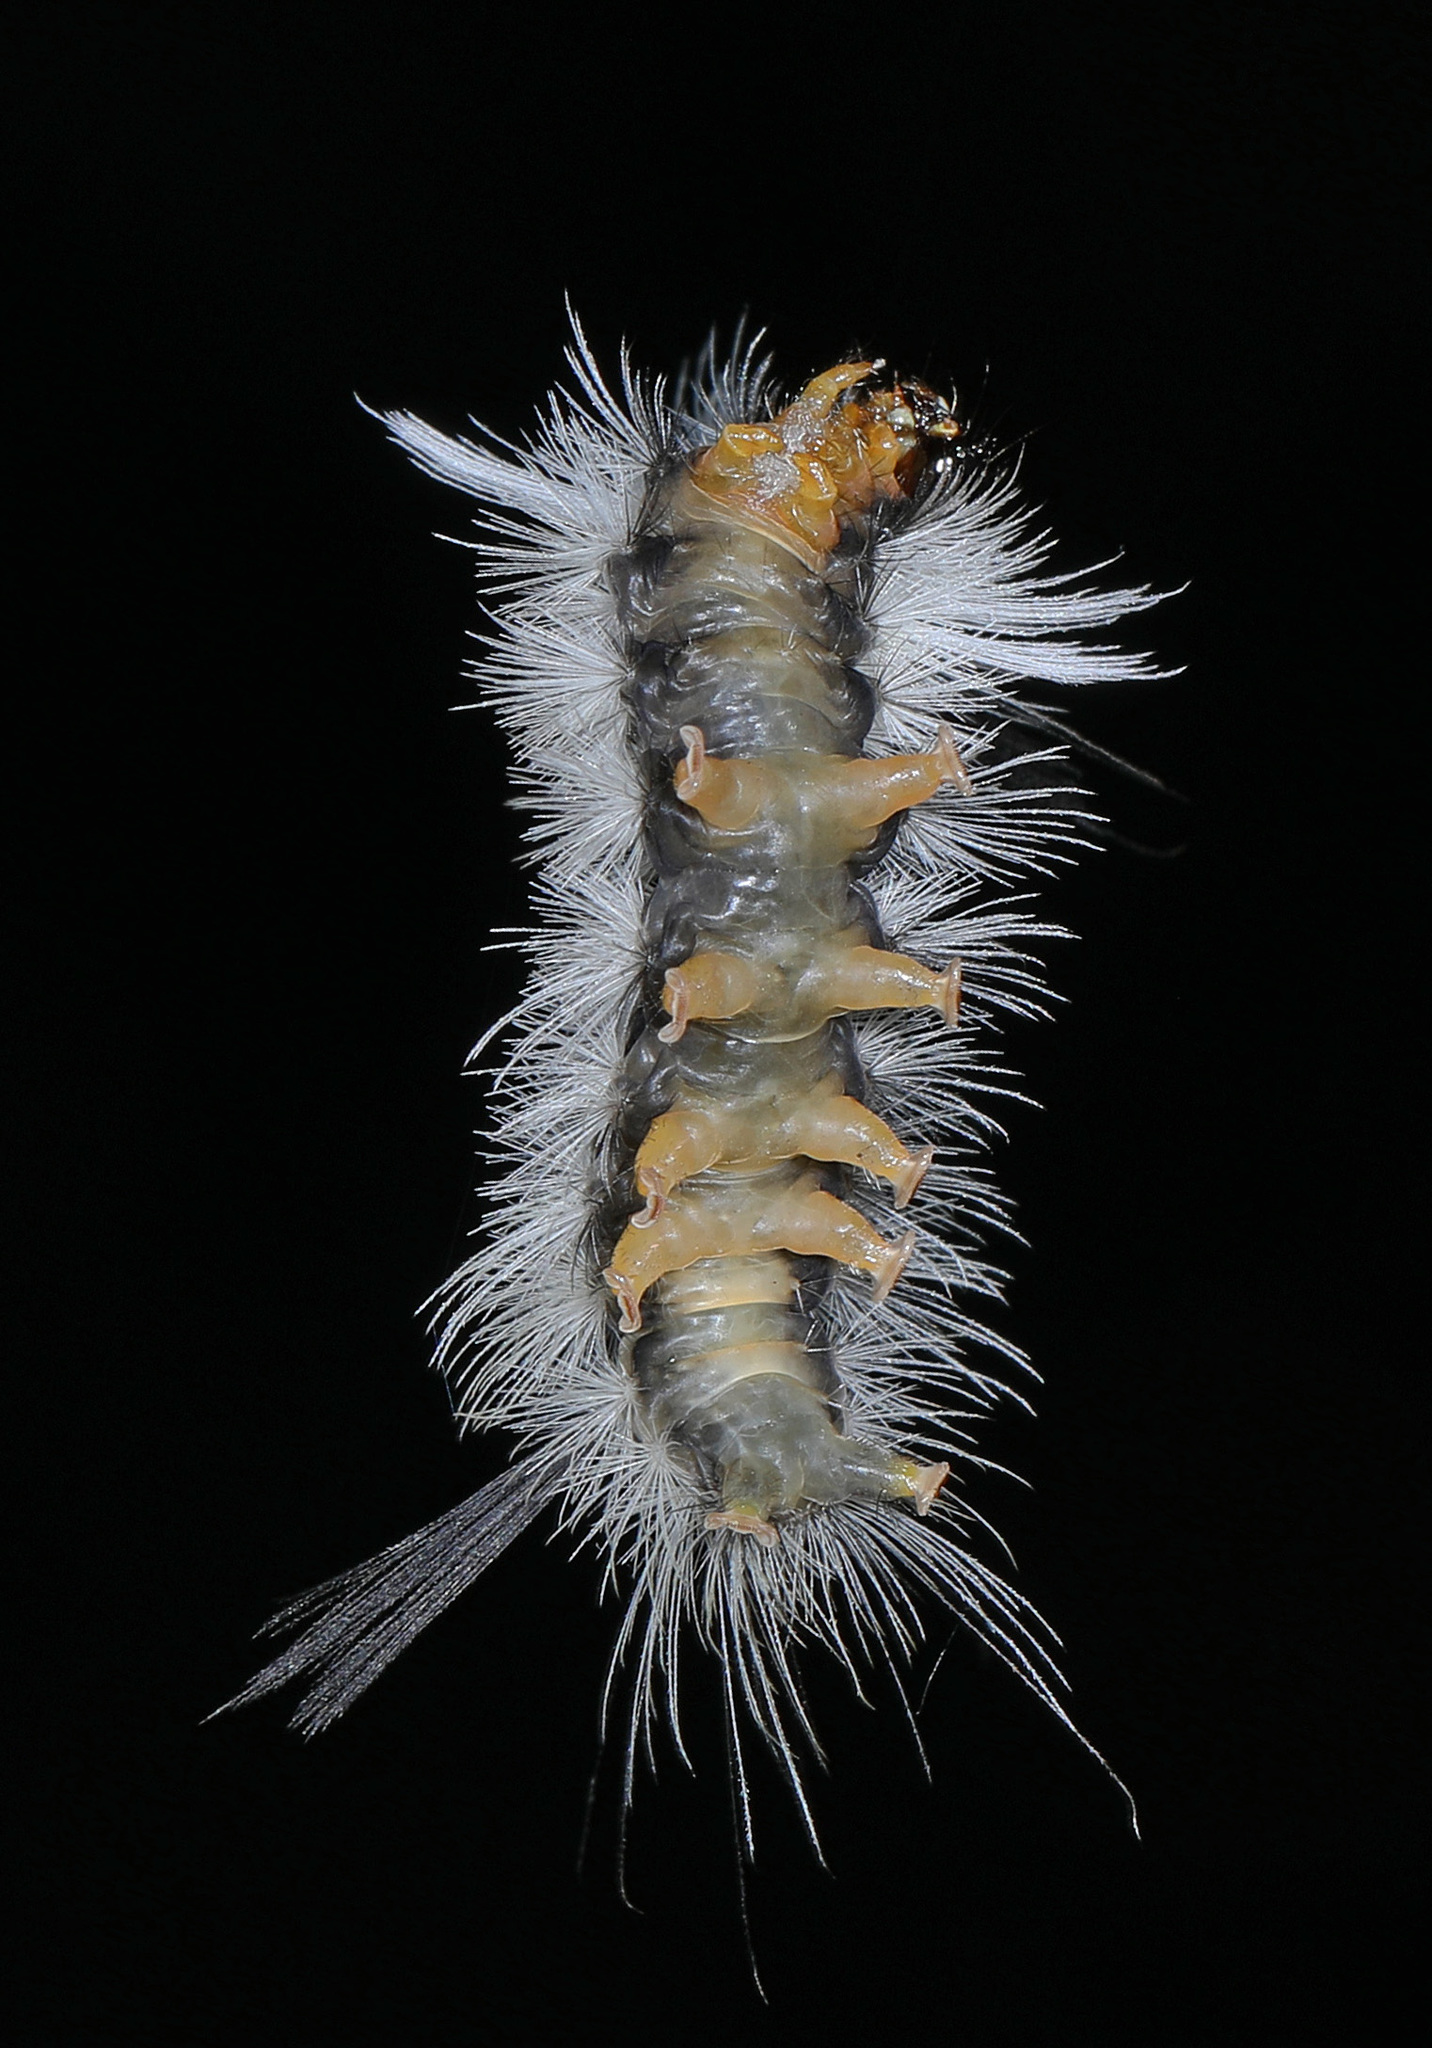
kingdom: Animalia
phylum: Arthropoda
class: Insecta
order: Lepidoptera
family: Erebidae
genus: Halysidota
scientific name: Halysidota tessellaris
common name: Banded tussock moth
